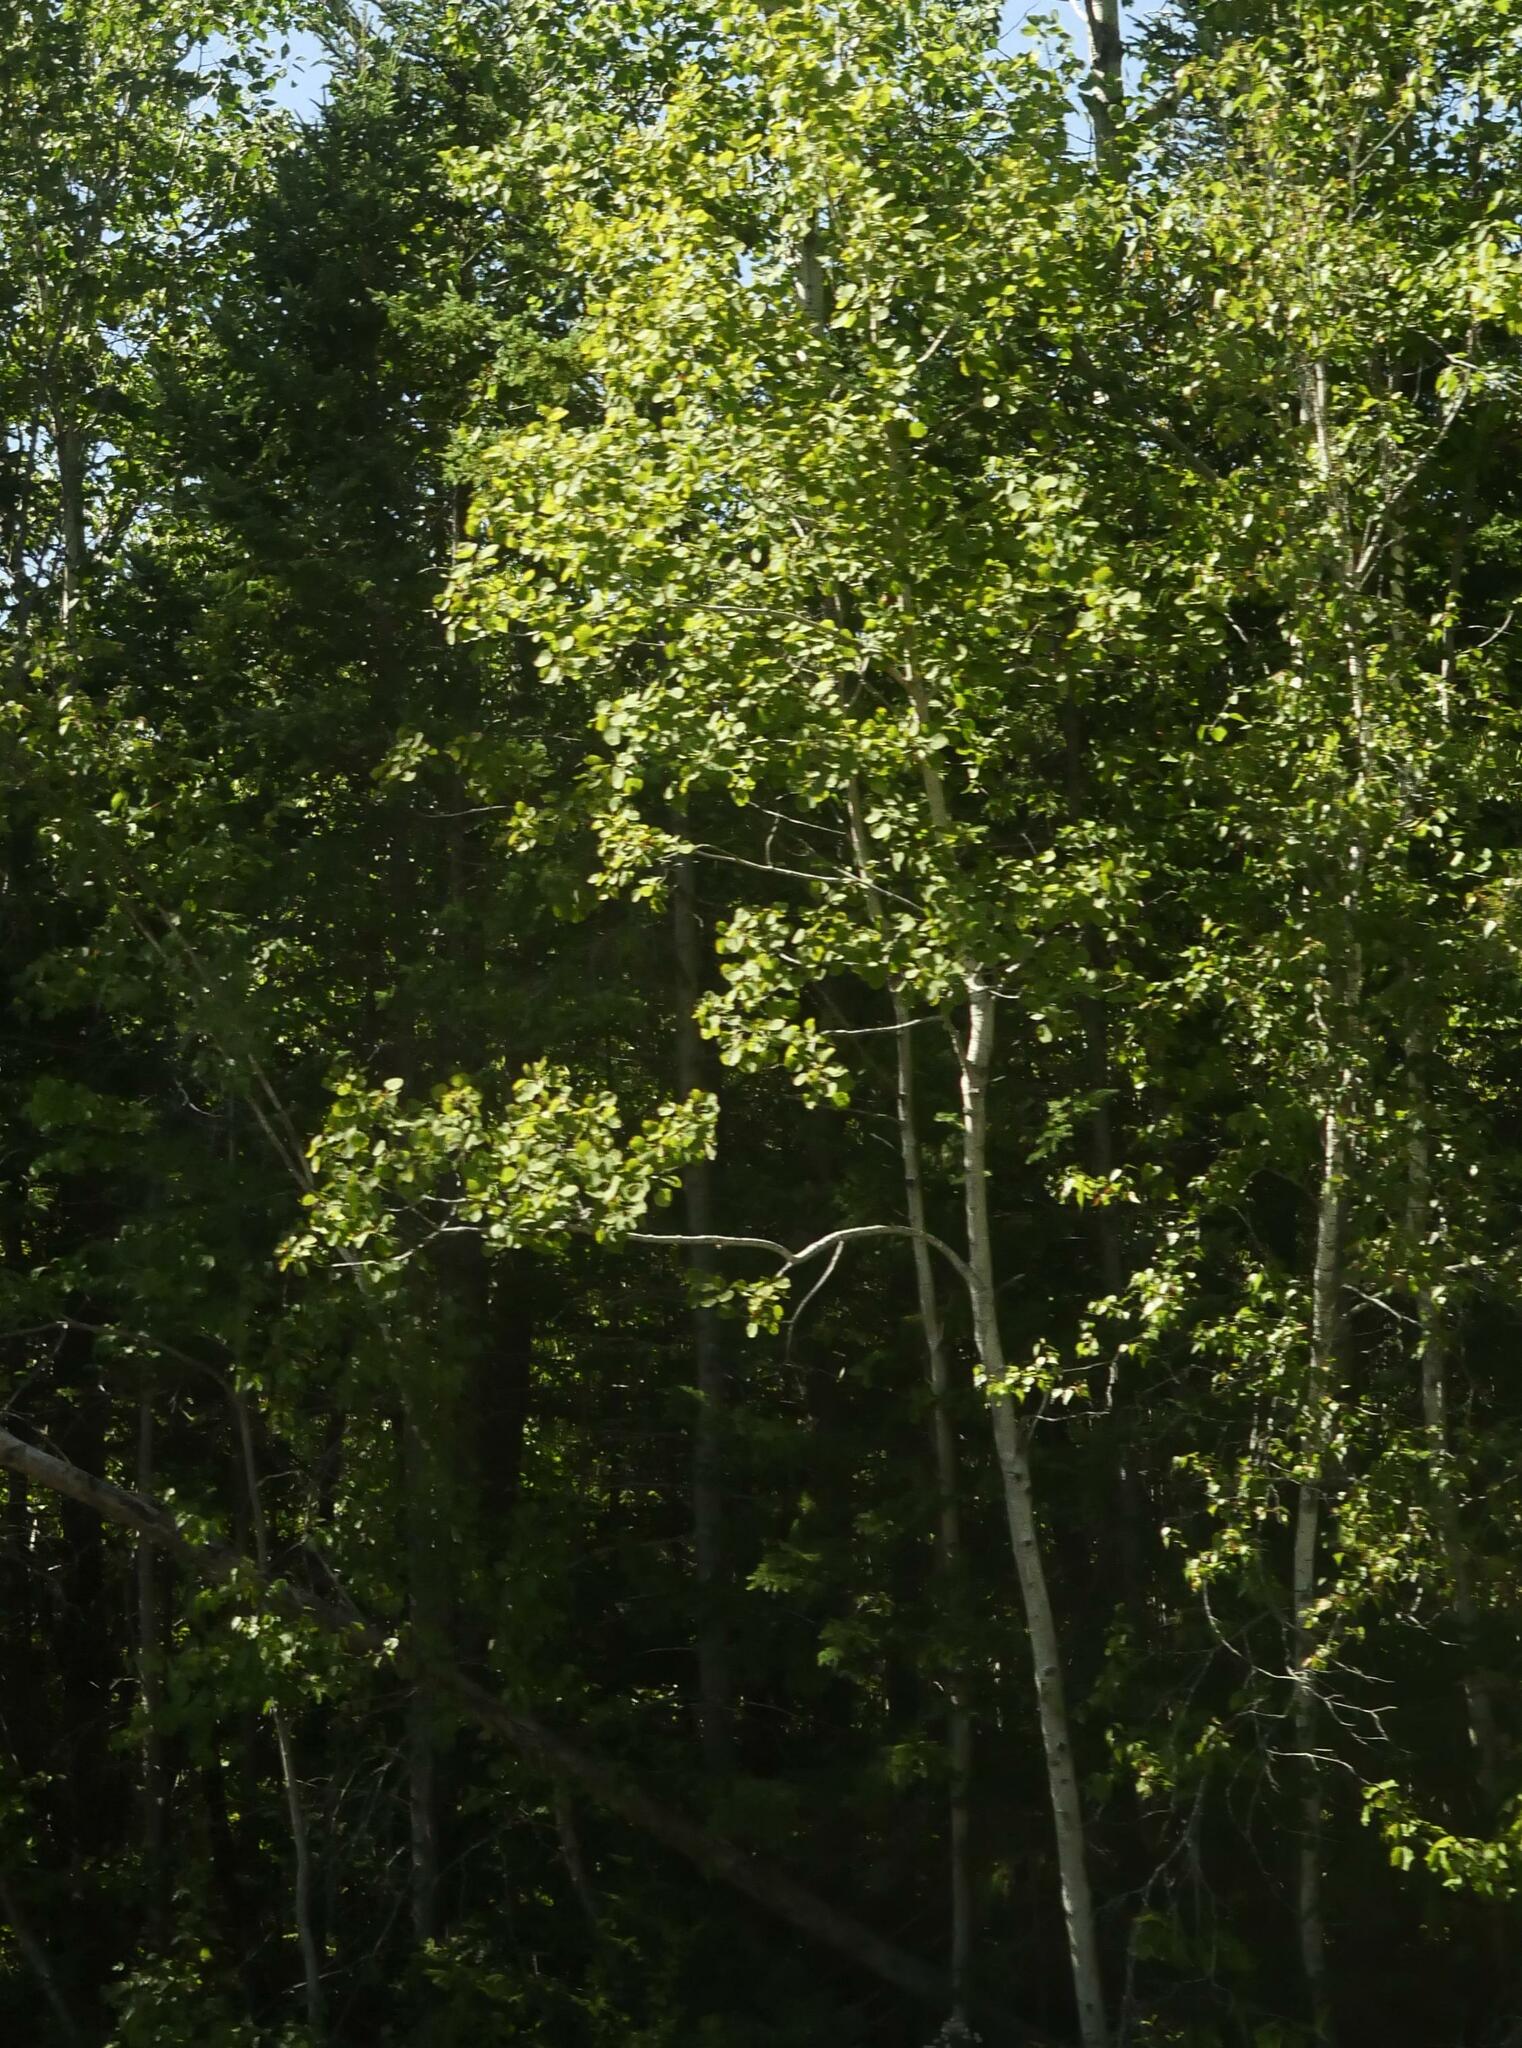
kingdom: Plantae
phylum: Tracheophyta
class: Magnoliopsida
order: Malpighiales
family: Salicaceae
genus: Populus
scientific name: Populus tremuloides
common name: Quaking aspen
